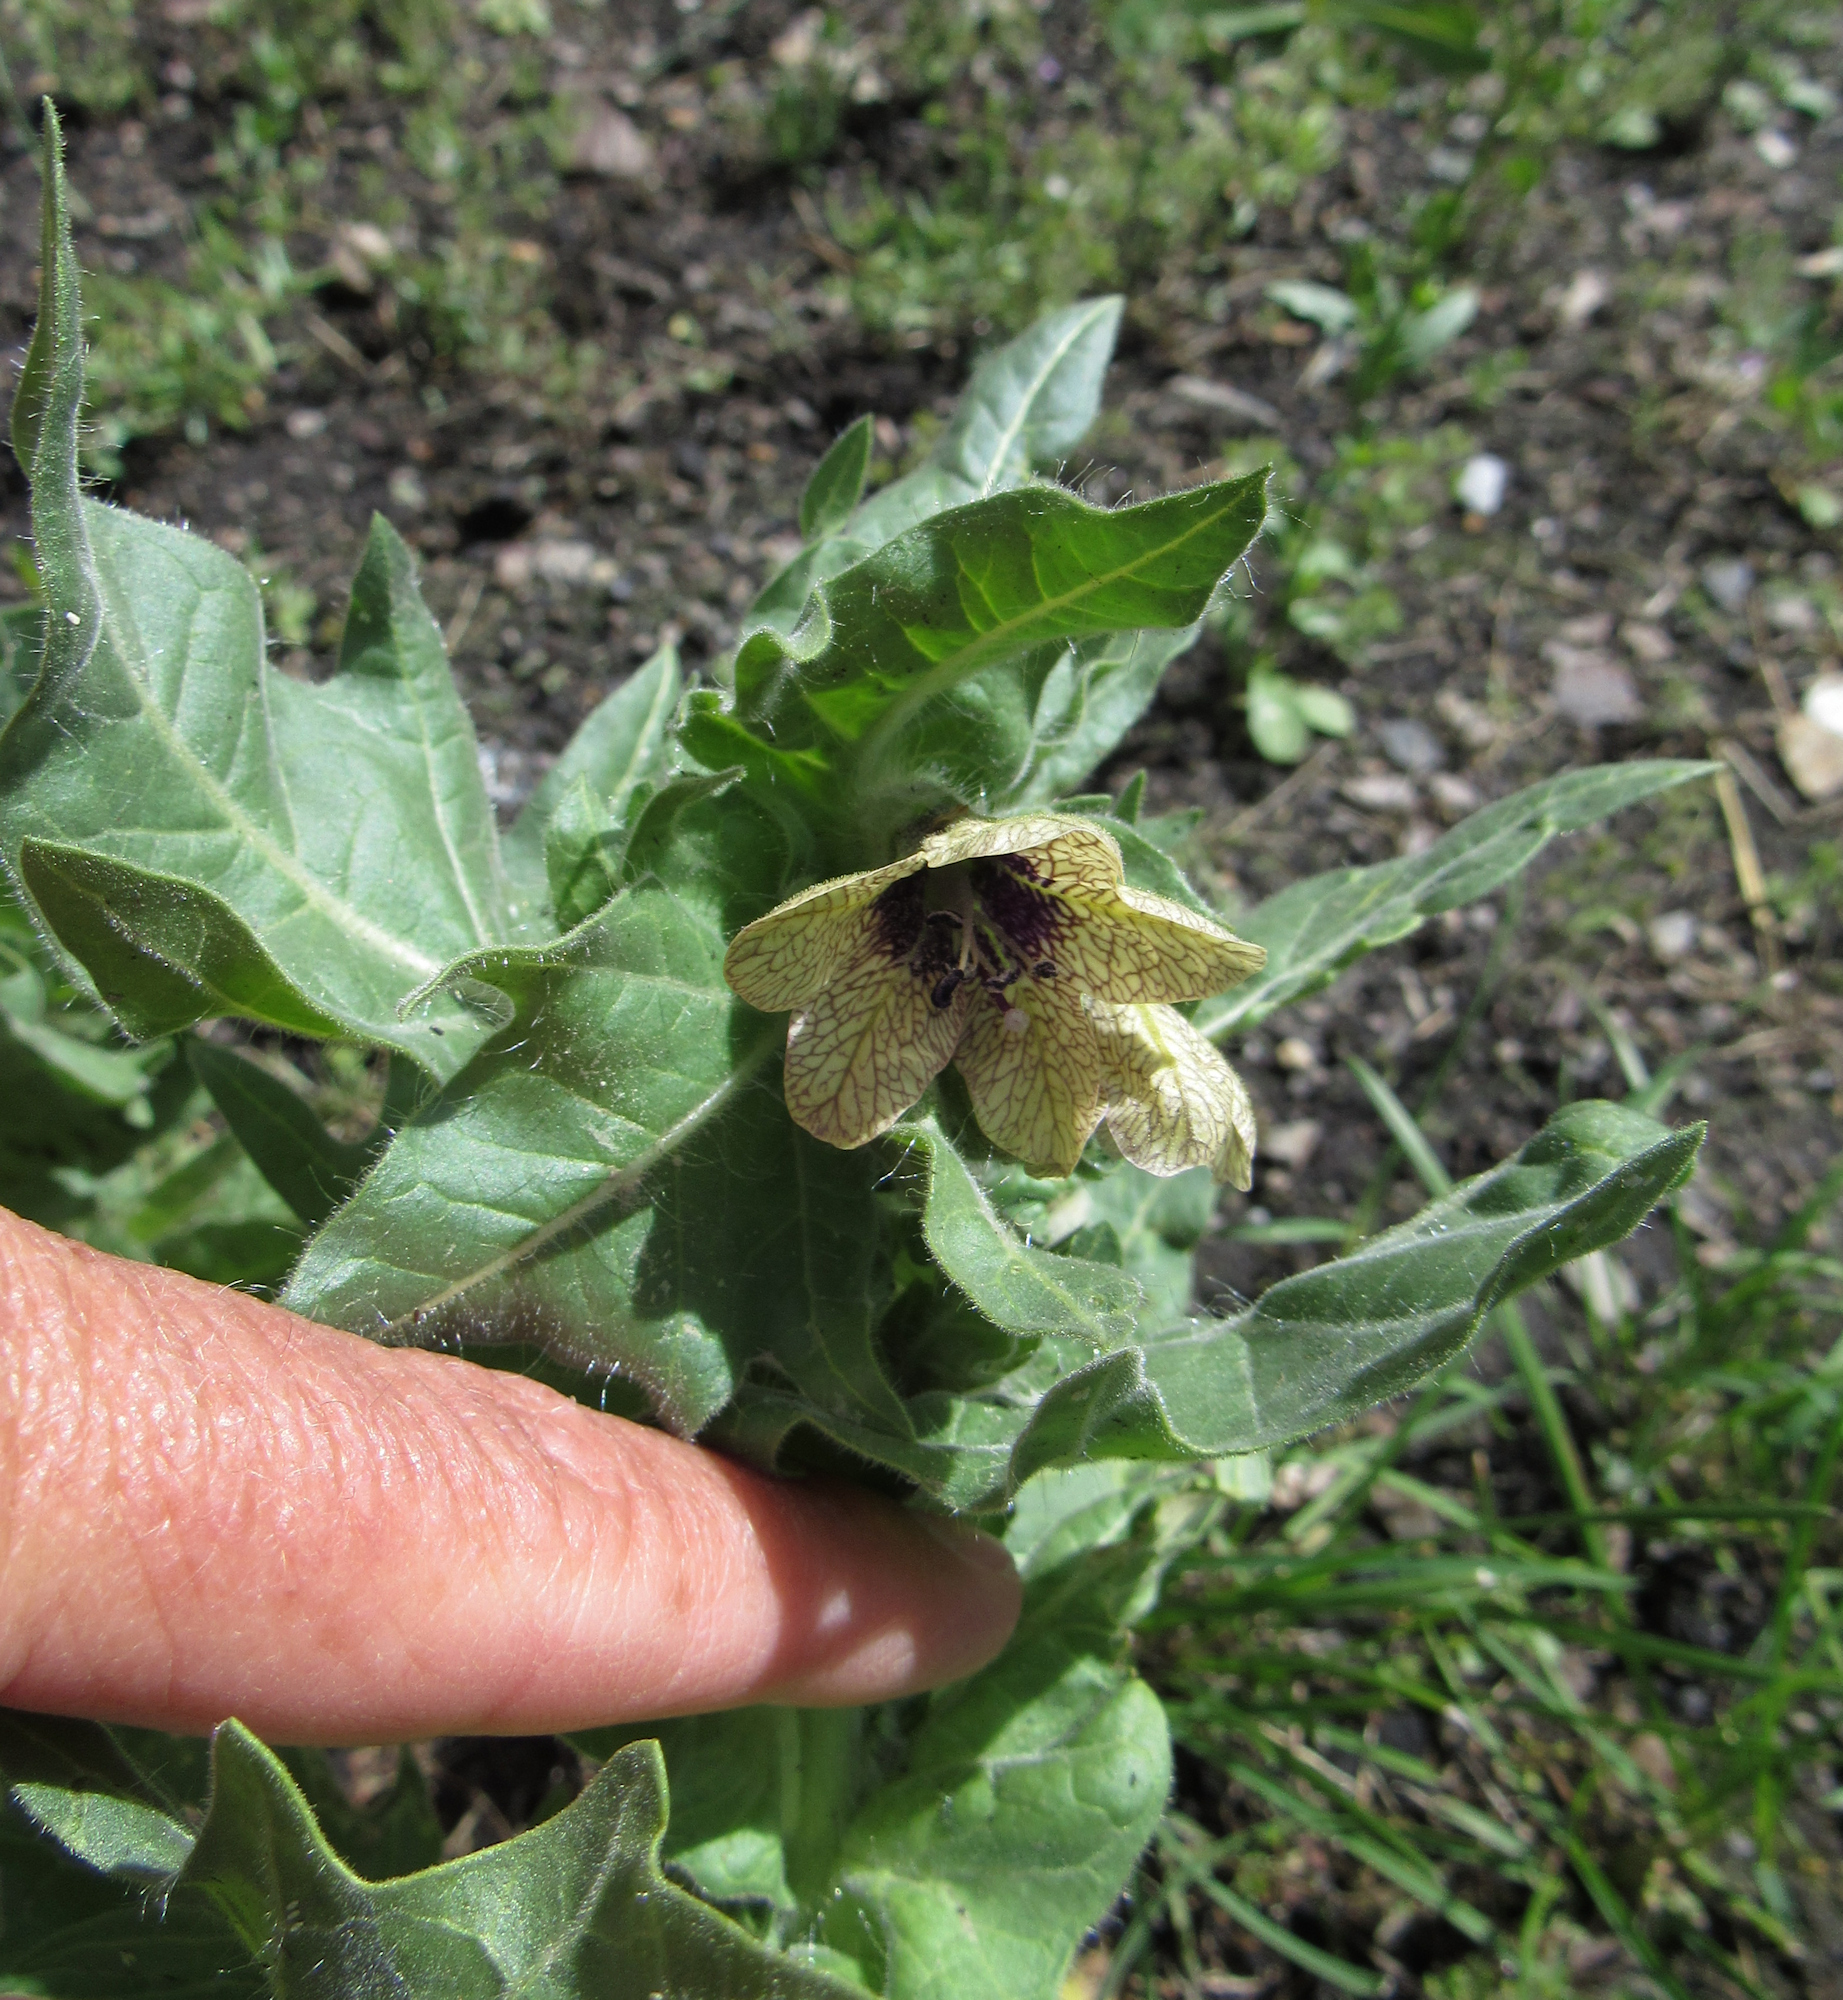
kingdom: Plantae
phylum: Tracheophyta
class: Magnoliopsida
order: Solanales
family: Solanaceae
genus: Hyoscyamus
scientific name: Hyoscyamus niger
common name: Henbane
